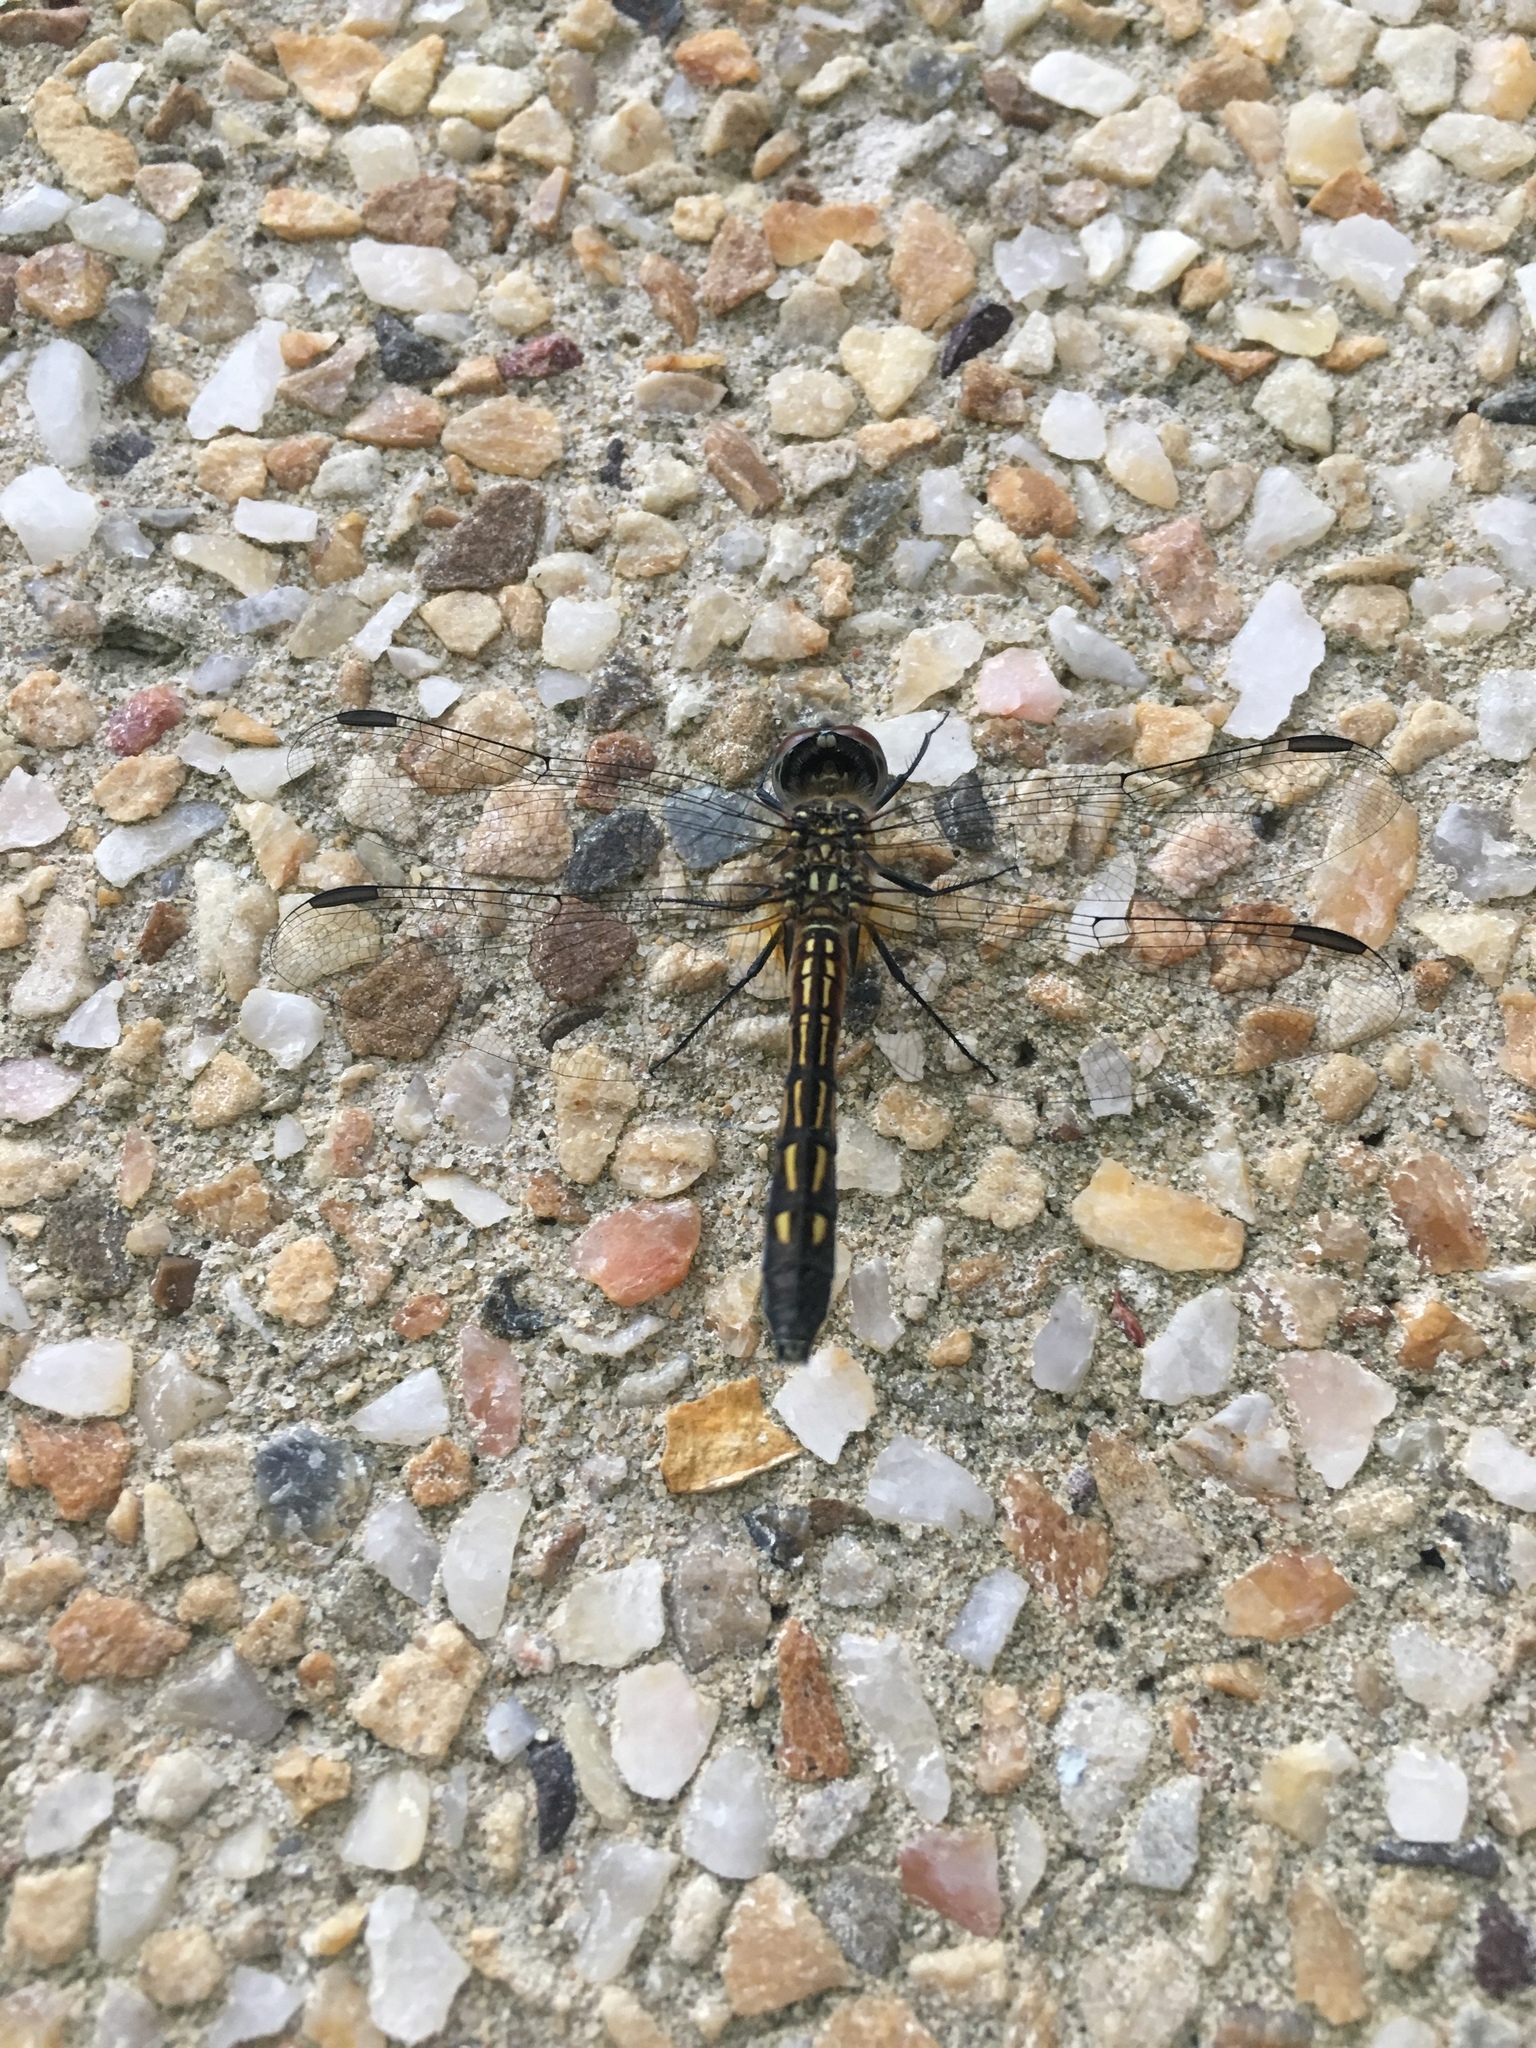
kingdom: Animalia
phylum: Arthropoda
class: Insecta
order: Odonata
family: Libellulidae
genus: Pachydiplax
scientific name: Pachydiplax longipennis
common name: Blue dasher
